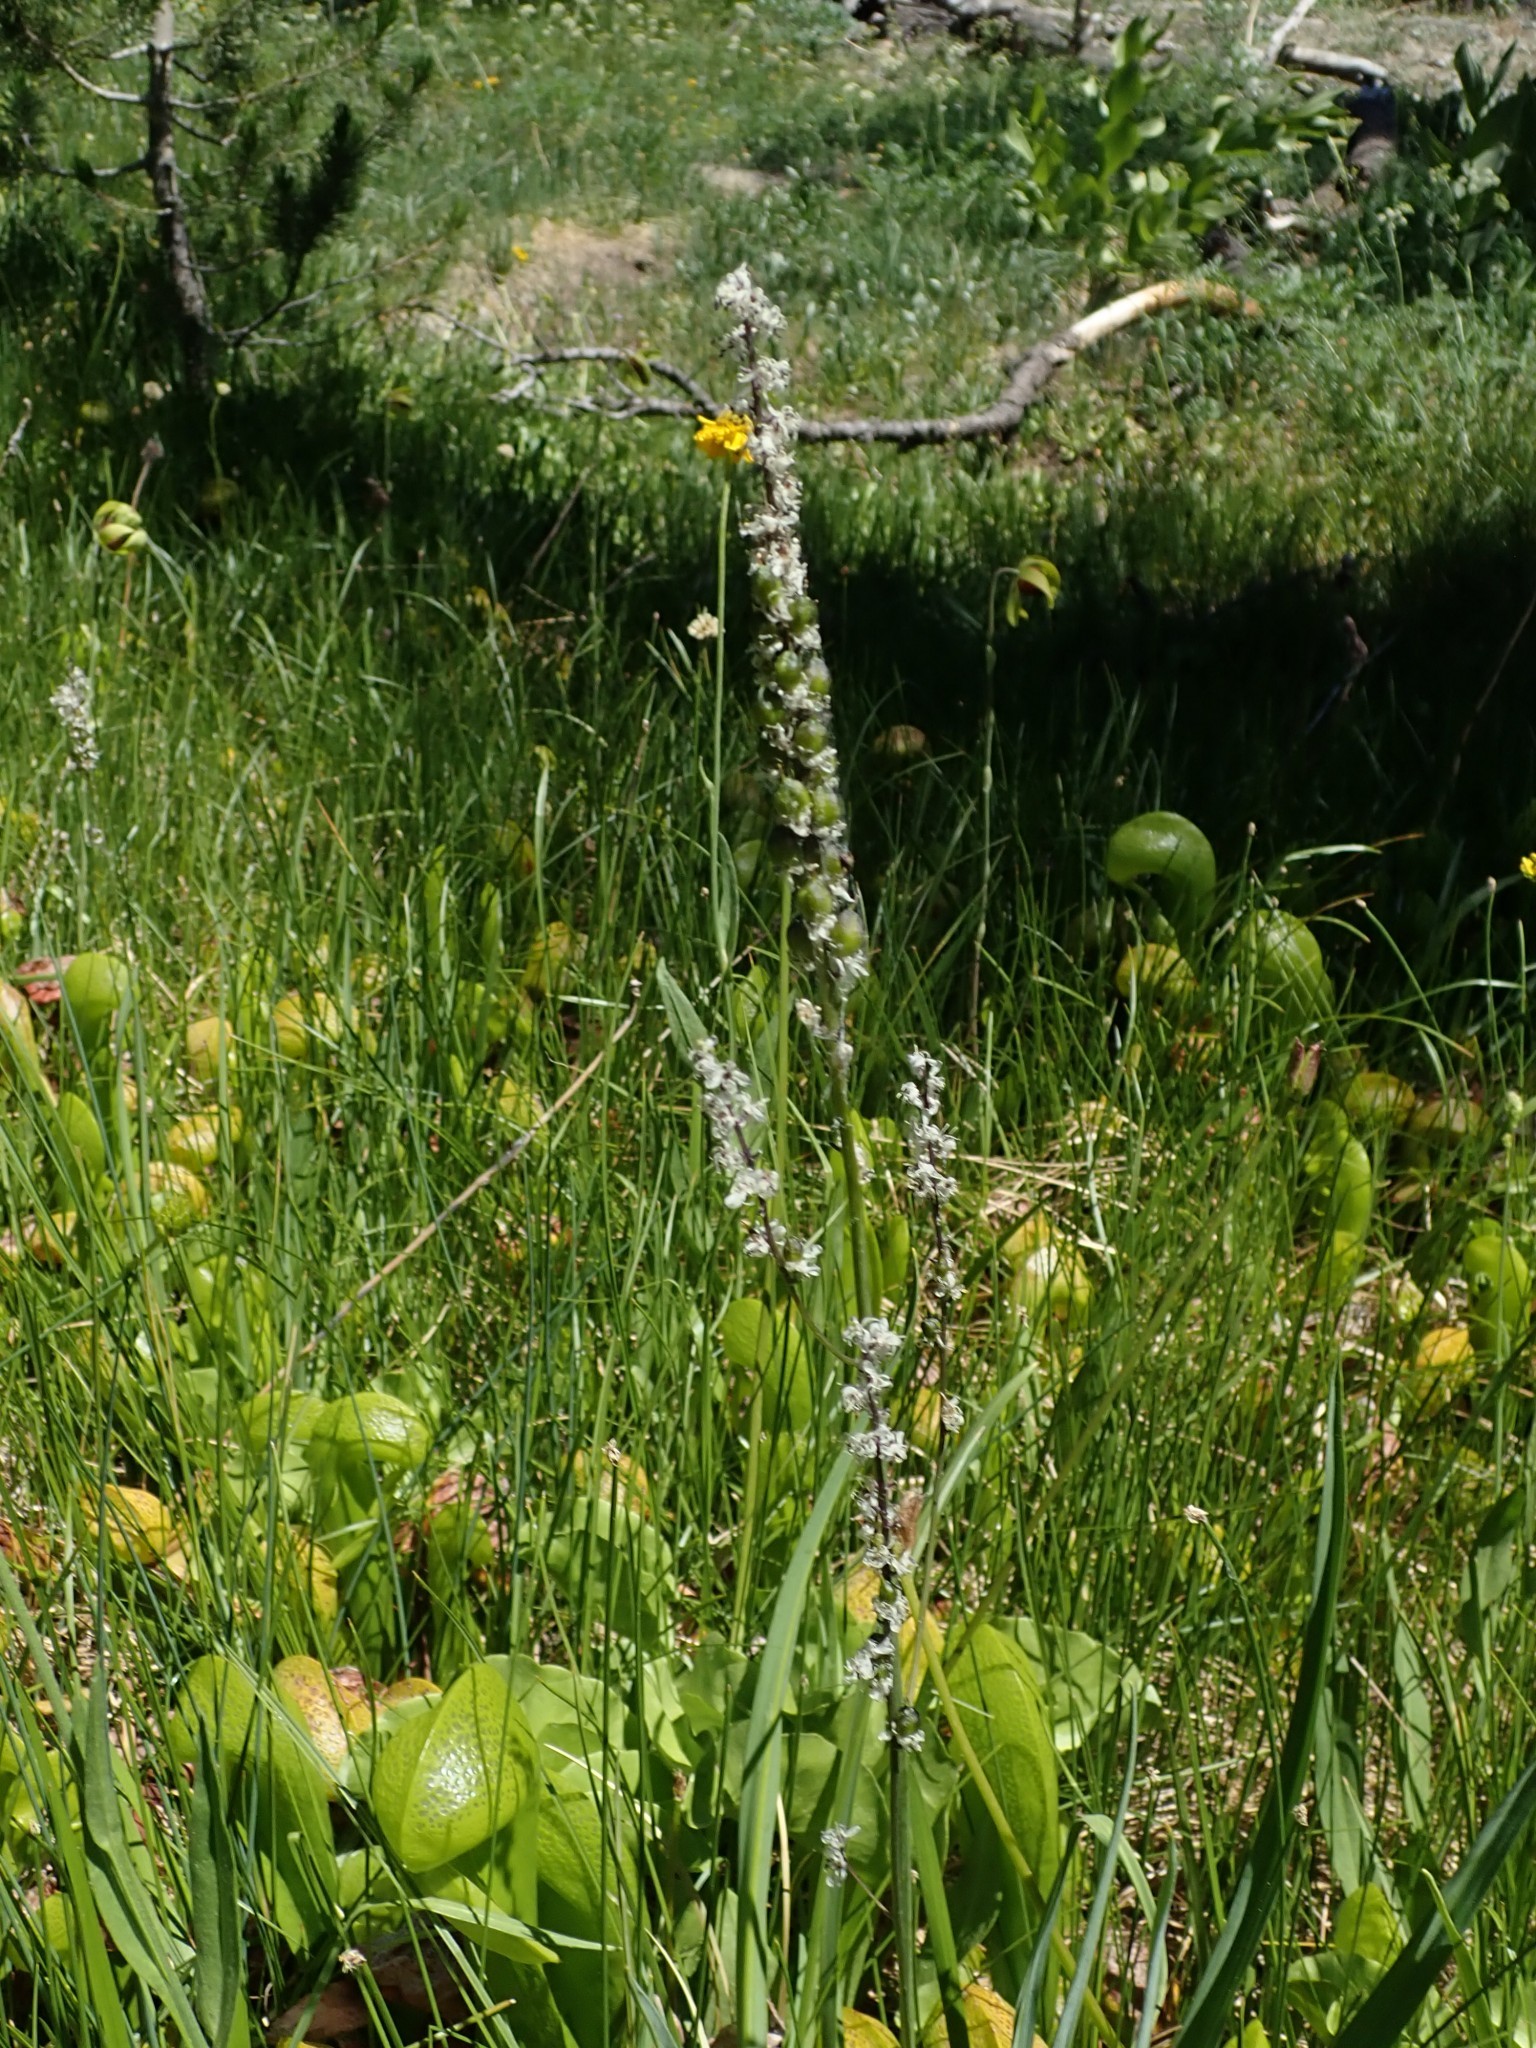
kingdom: Plantae
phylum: Tracheophyta
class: Liliopsida
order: Asparagales
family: Orchidaceae
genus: Platanthera
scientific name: Platanthera dilatata
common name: Bog candles
